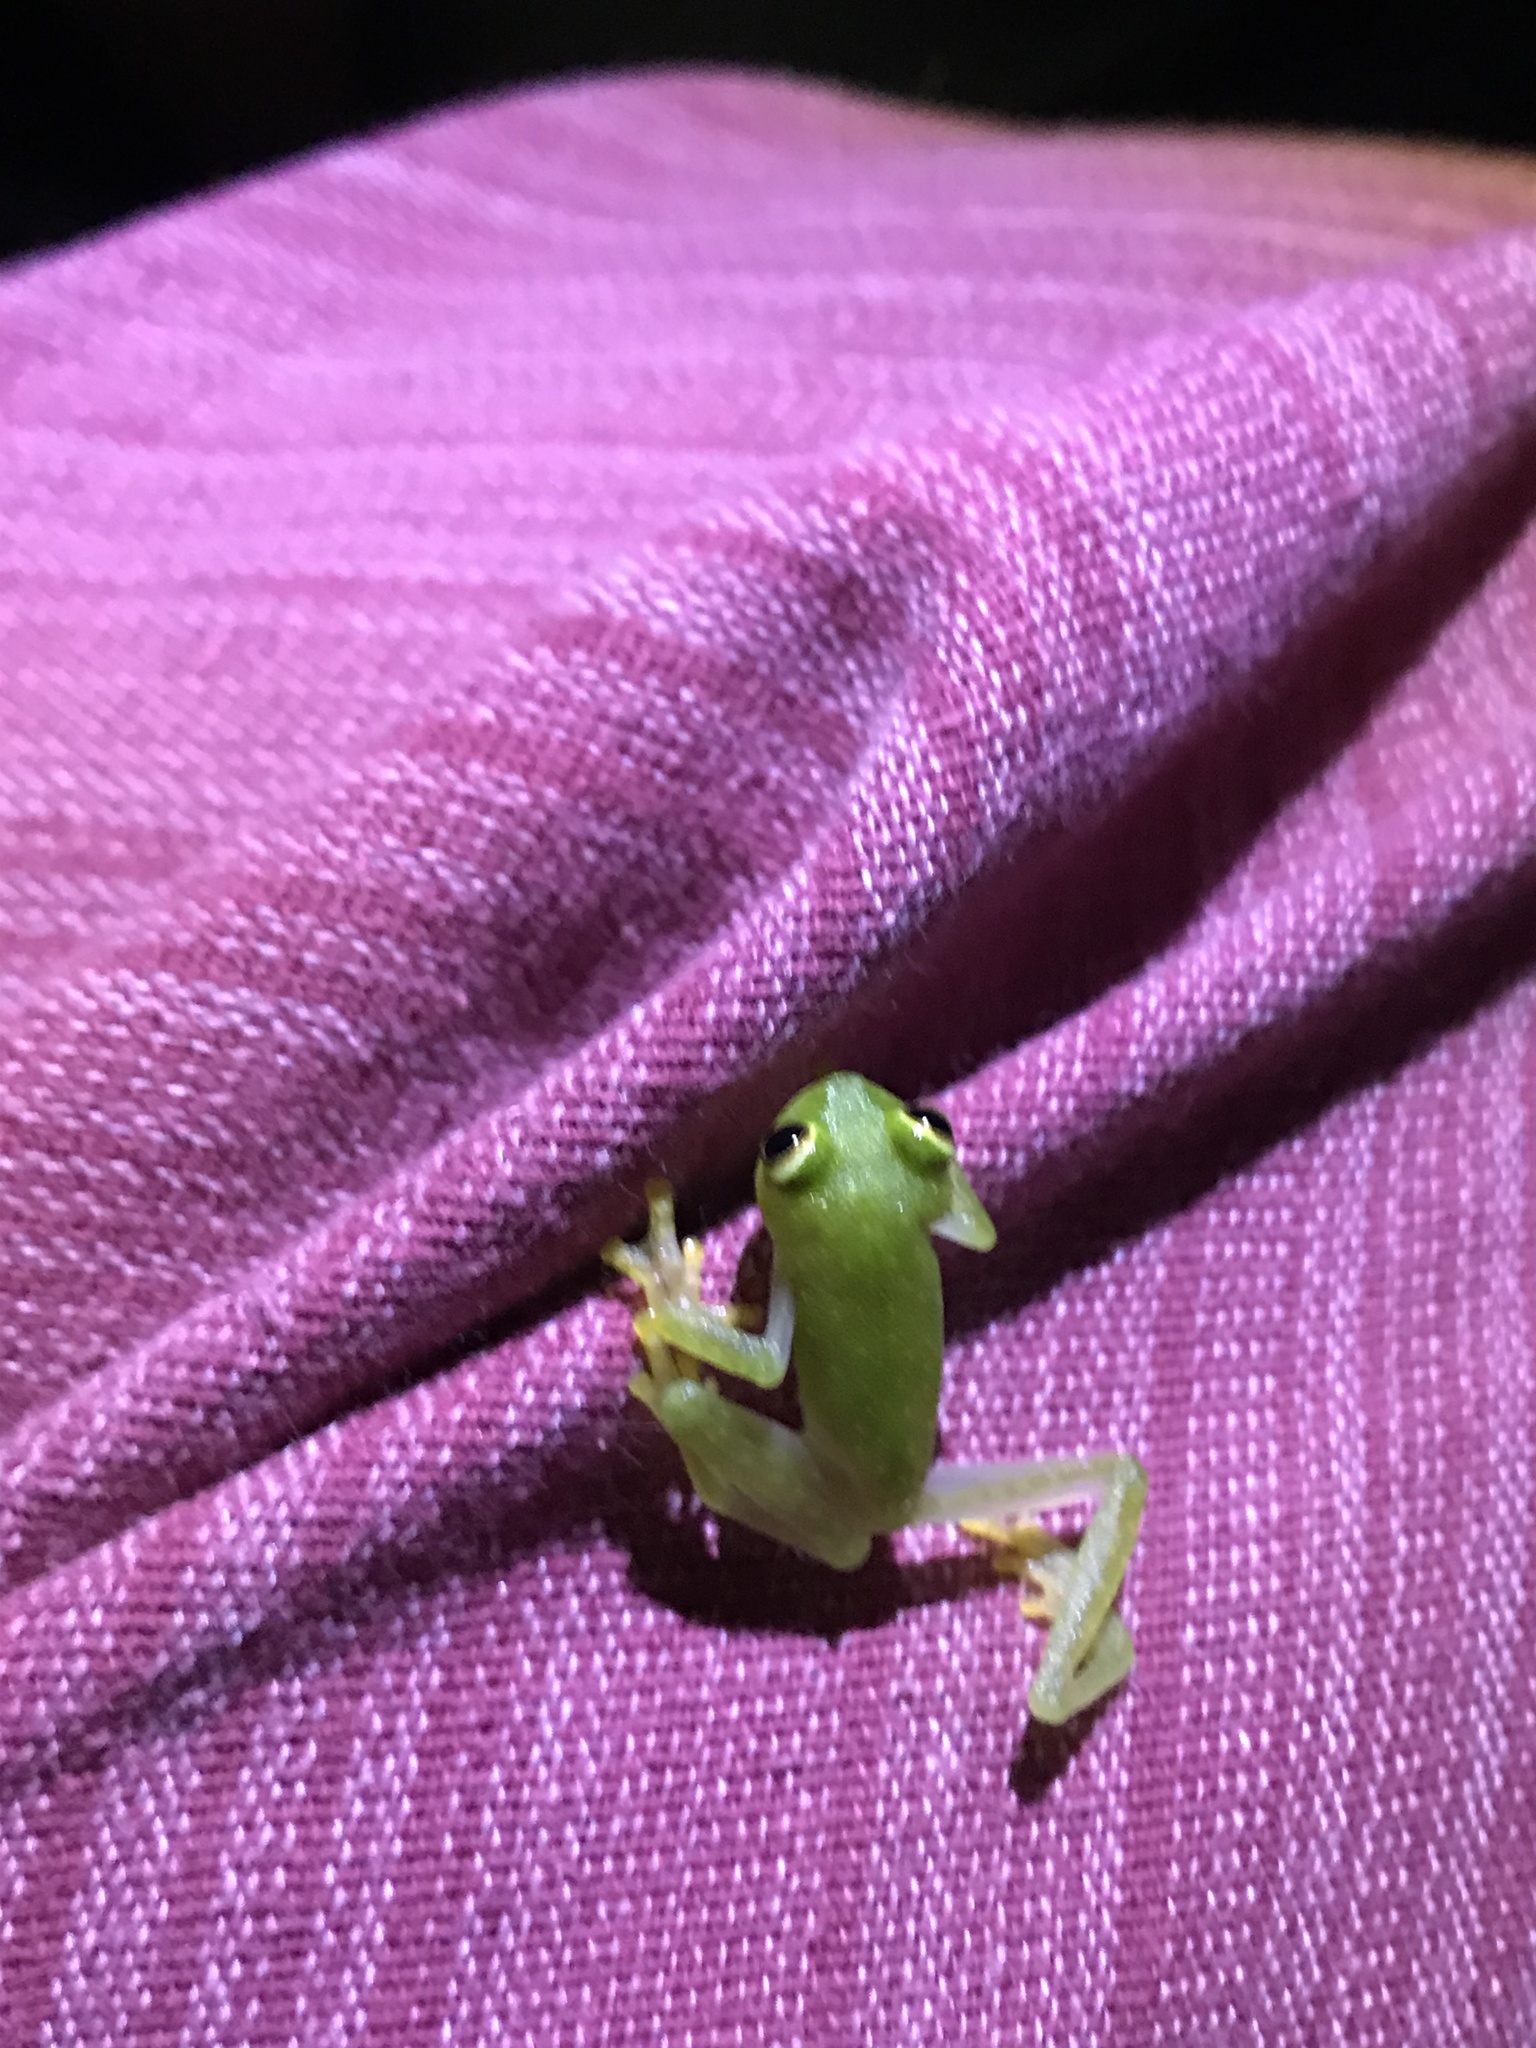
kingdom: Animalia
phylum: Chordata
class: Amphibia
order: Anura
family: Centrolenidae
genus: Hyalinobatrachium
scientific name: Hyalinobatrachium tatayoi
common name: Tatayo’s glass frog
